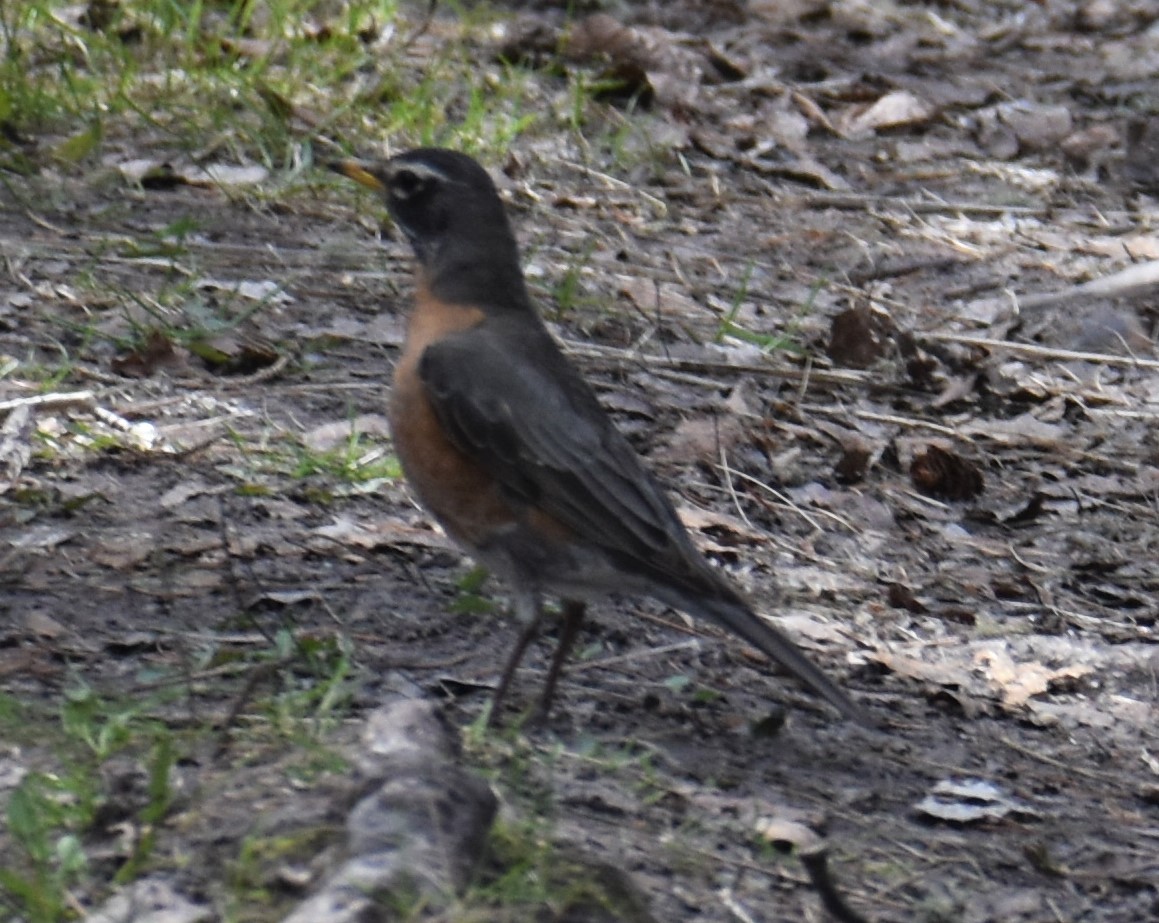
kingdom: Animalia
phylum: Chordata
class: Aves
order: Passeriformes
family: Turdidae
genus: Turdus
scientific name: Turdus migratorius
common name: American robin
